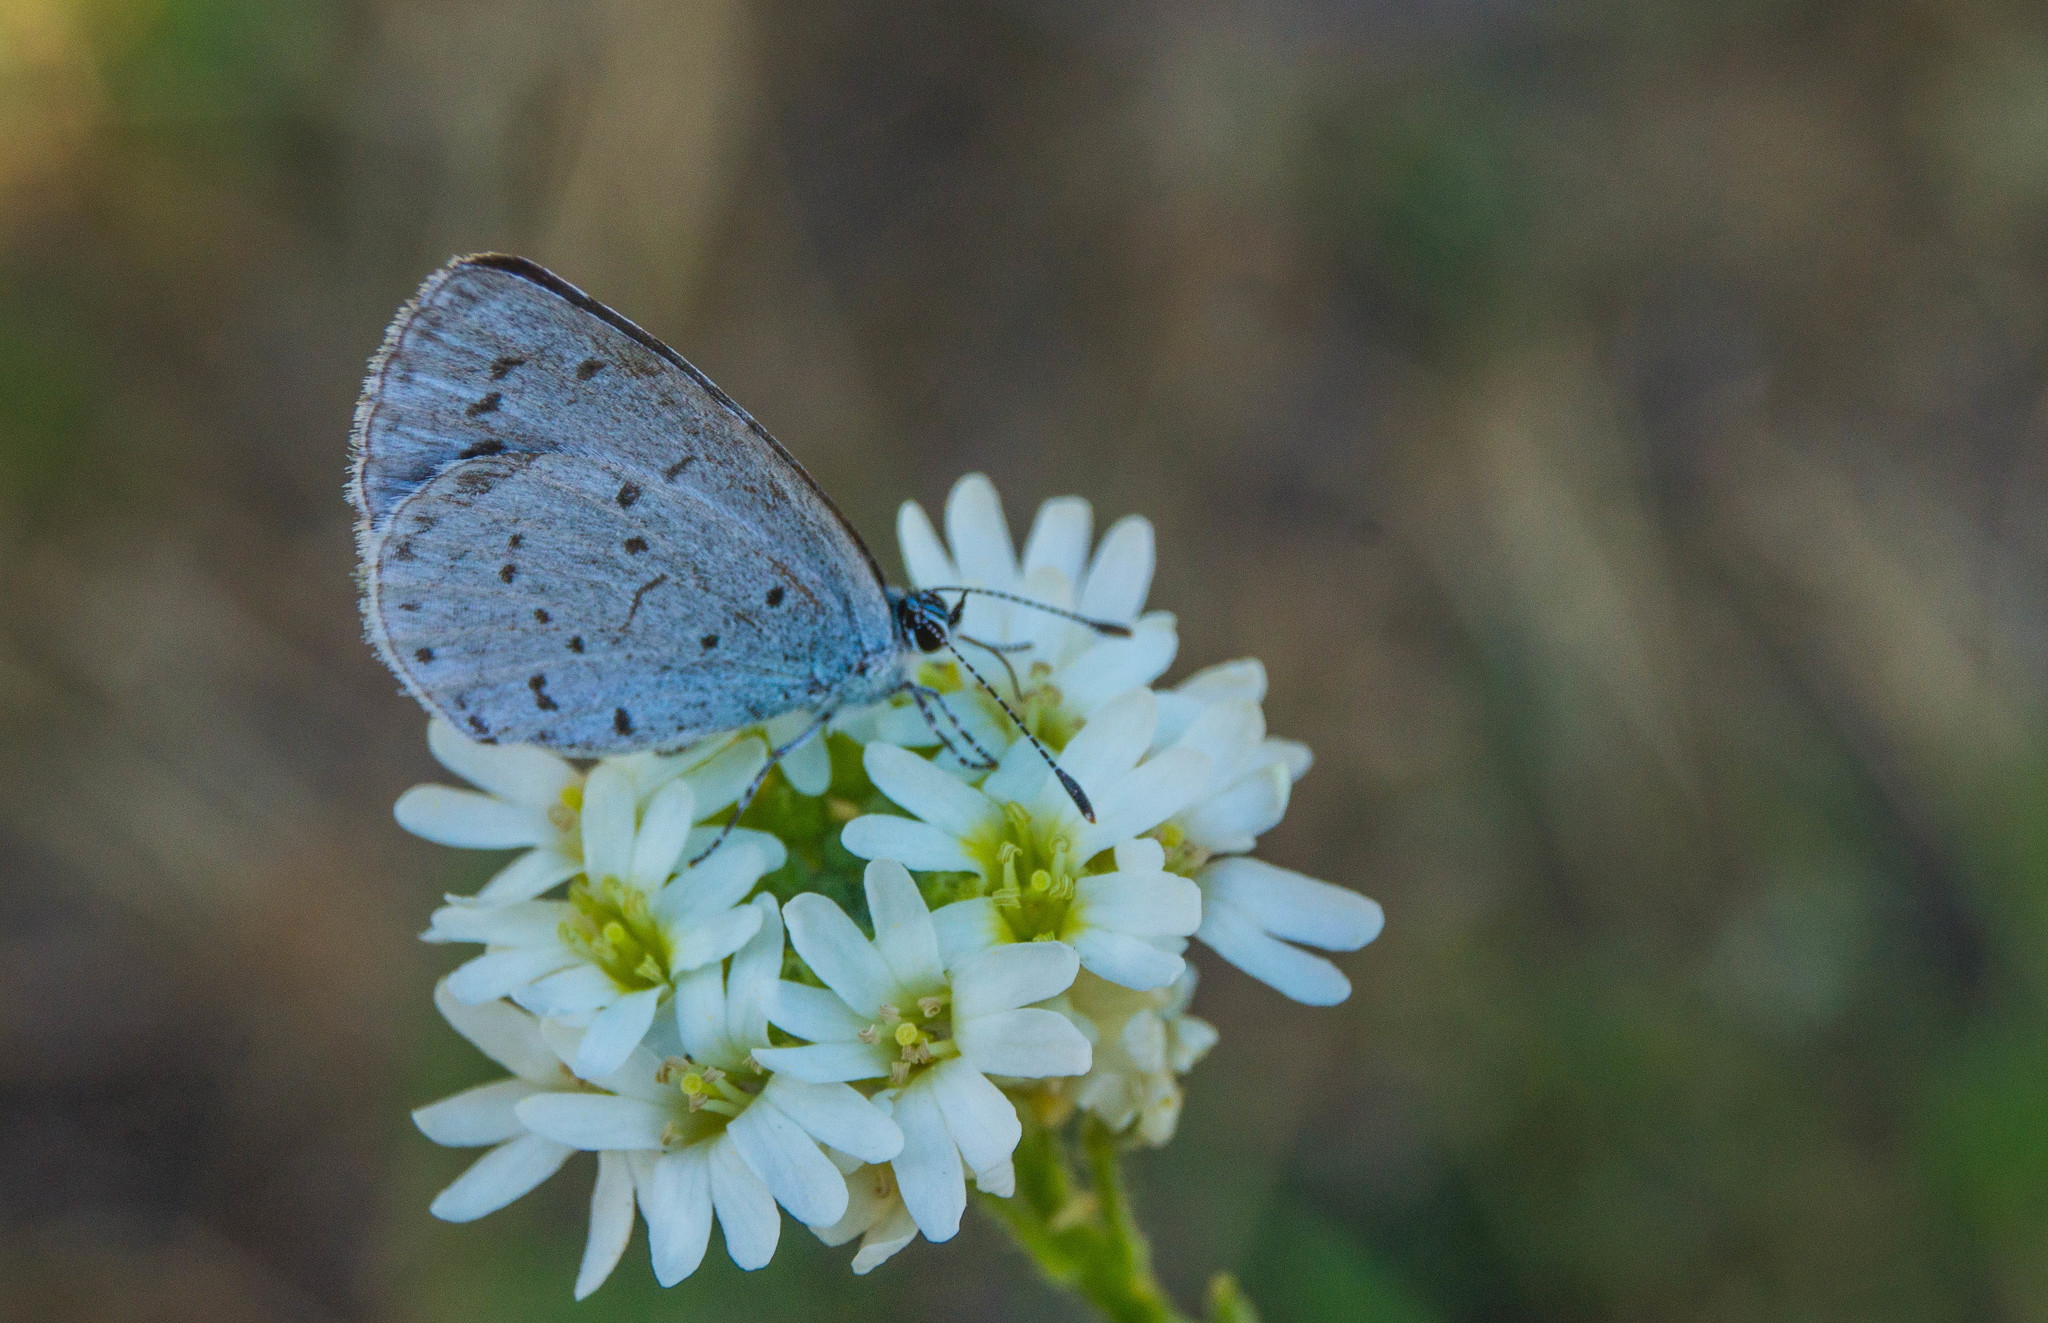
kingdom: Animalia
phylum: Arthropoda
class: Insecta
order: Lepidoptera
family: Lycaenidae
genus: Celastrina
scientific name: Celastrina argiolus
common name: Holly blue
